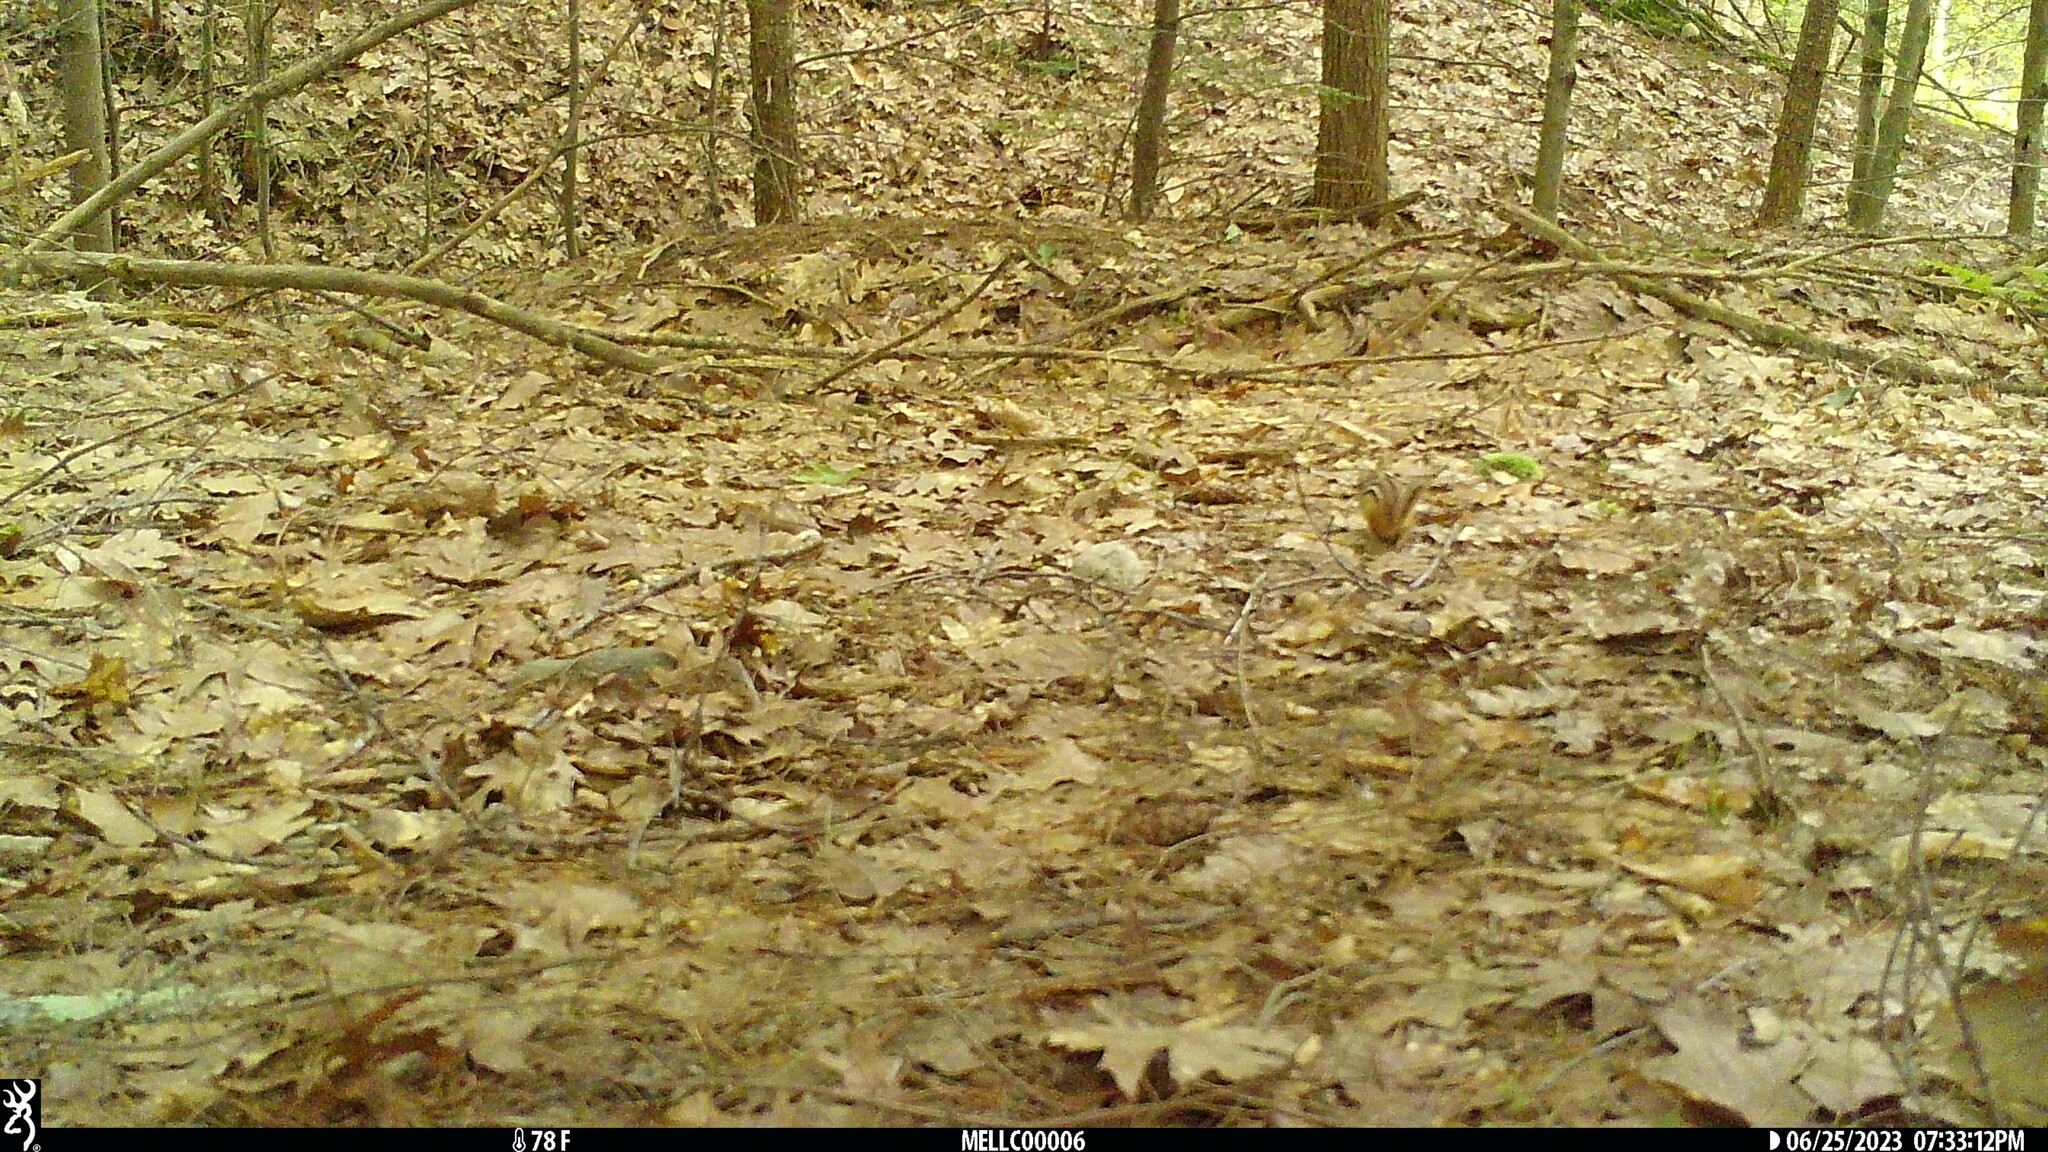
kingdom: Animalia
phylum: Chordata
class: Mammalia
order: Rodentia
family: Sciuridae
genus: Tamias
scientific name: Tamias striatus
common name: Eastern chipmunk
